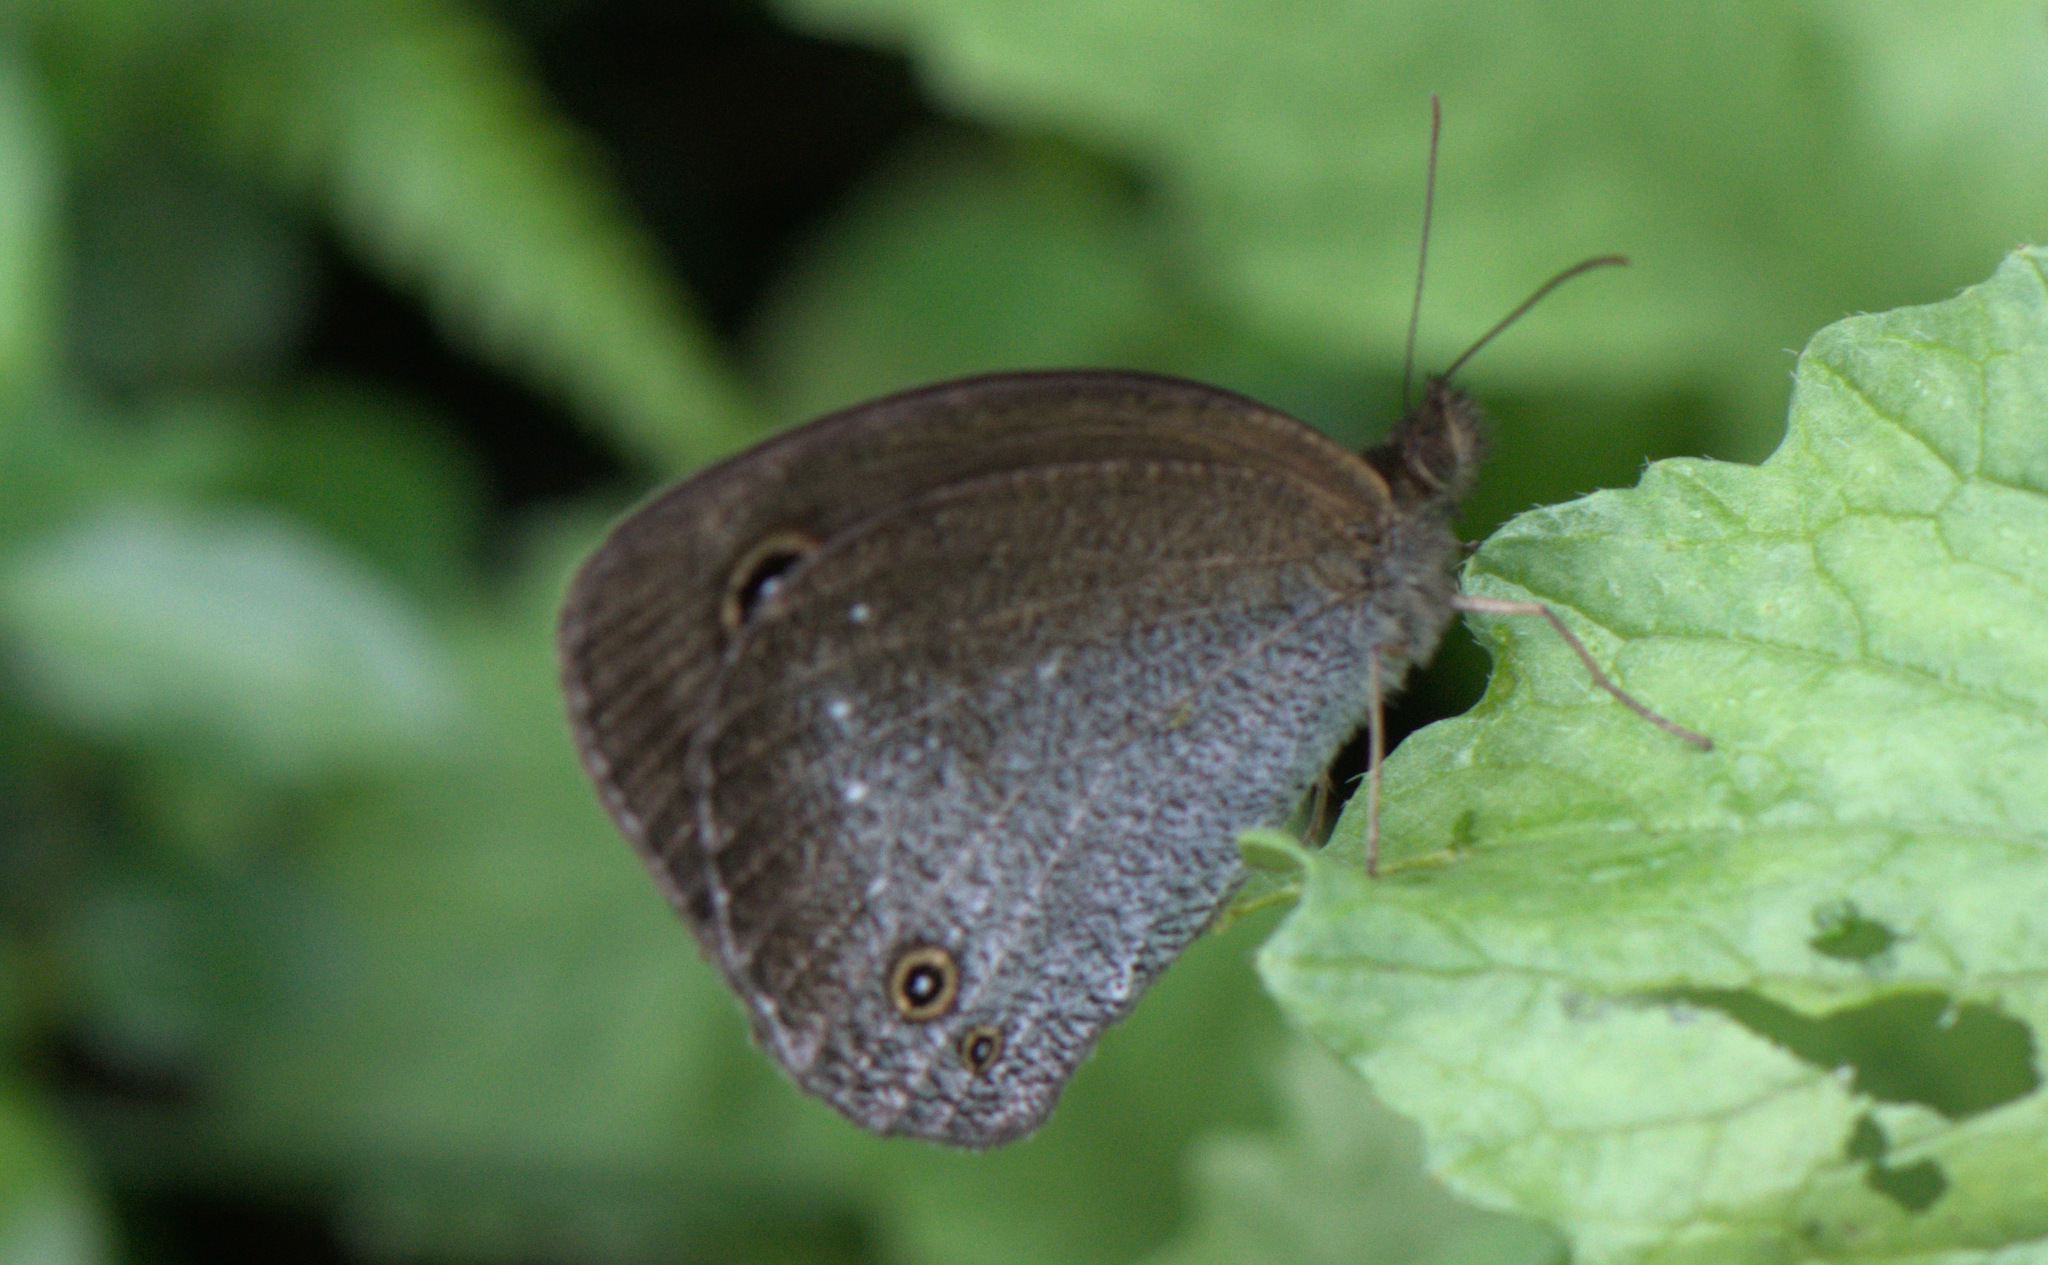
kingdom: Animalia
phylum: Arthropoda
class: Insecta
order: Lepidoptera
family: Nymphalidae
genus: Callerebia
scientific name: Callerebia scanda
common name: Pallid argus
